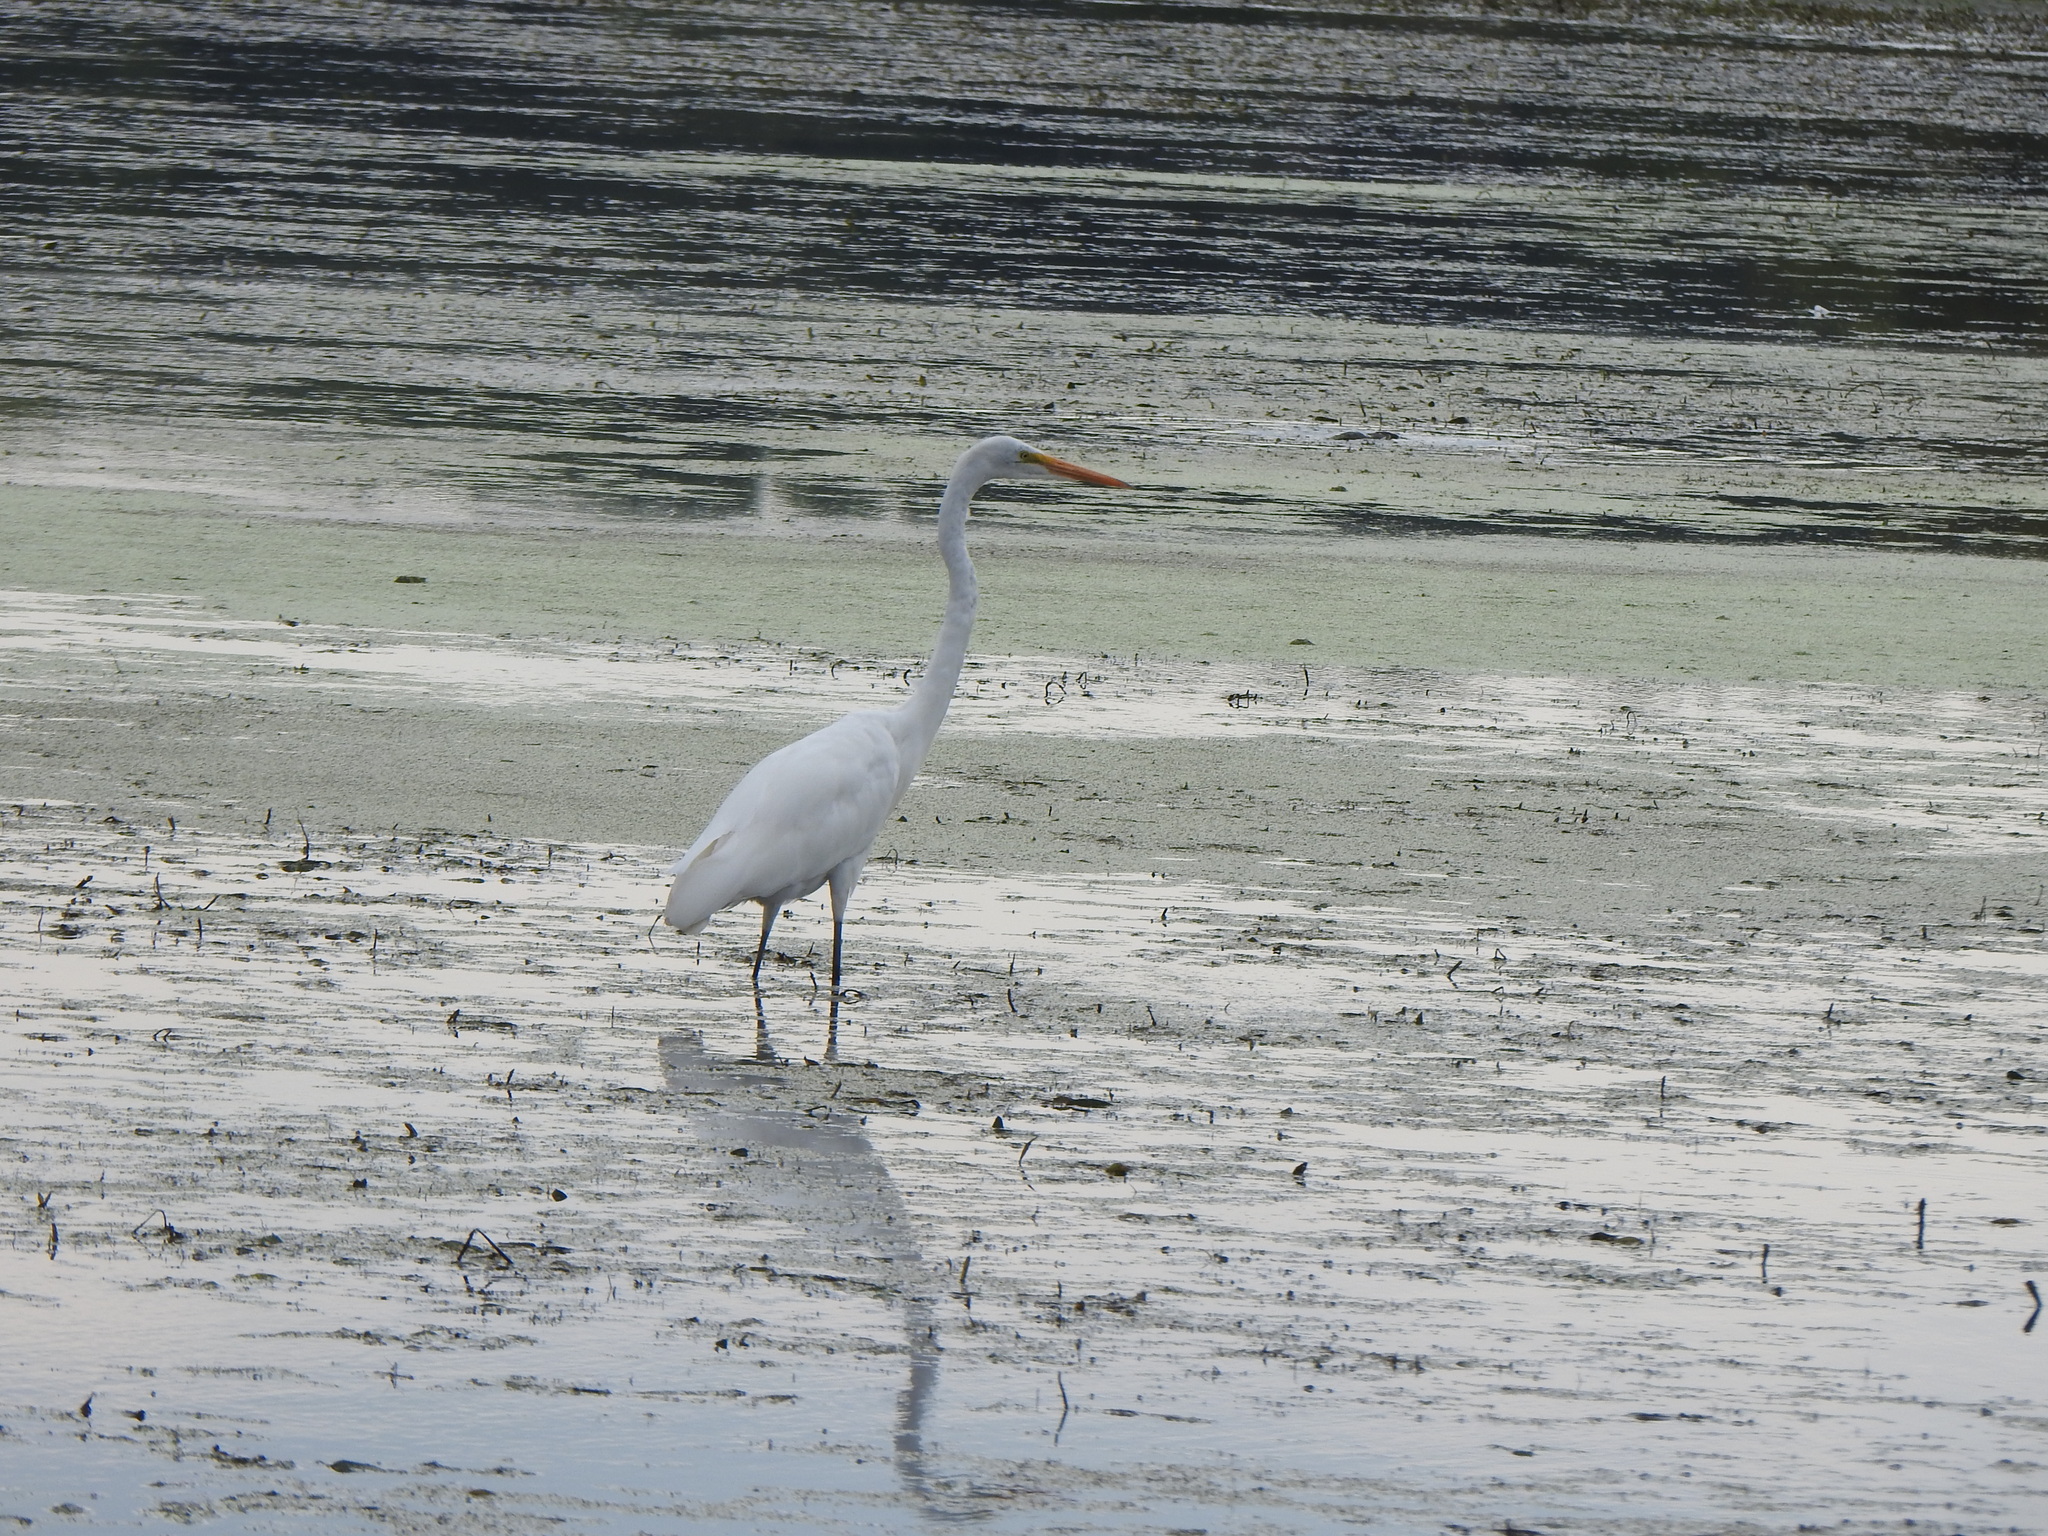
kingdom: Animalia
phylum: Chordata
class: Aves
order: Pelecaniformes
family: Ardeidae
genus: Ardea
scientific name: Ardea alba
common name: Great egret
